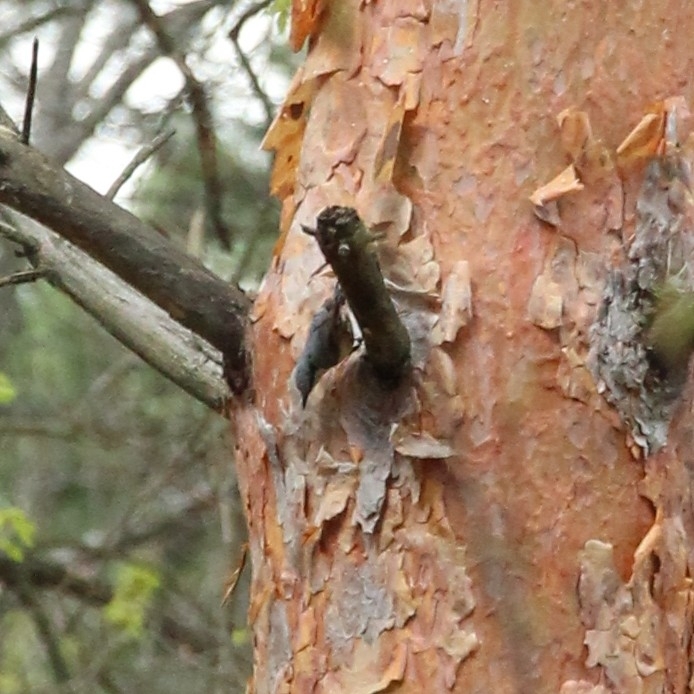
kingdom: Animalia
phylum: Chordata
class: Aves
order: Passeriformes
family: Sittidae
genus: Sitta
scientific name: Sitta europaea
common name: Eurasian nuthatch
